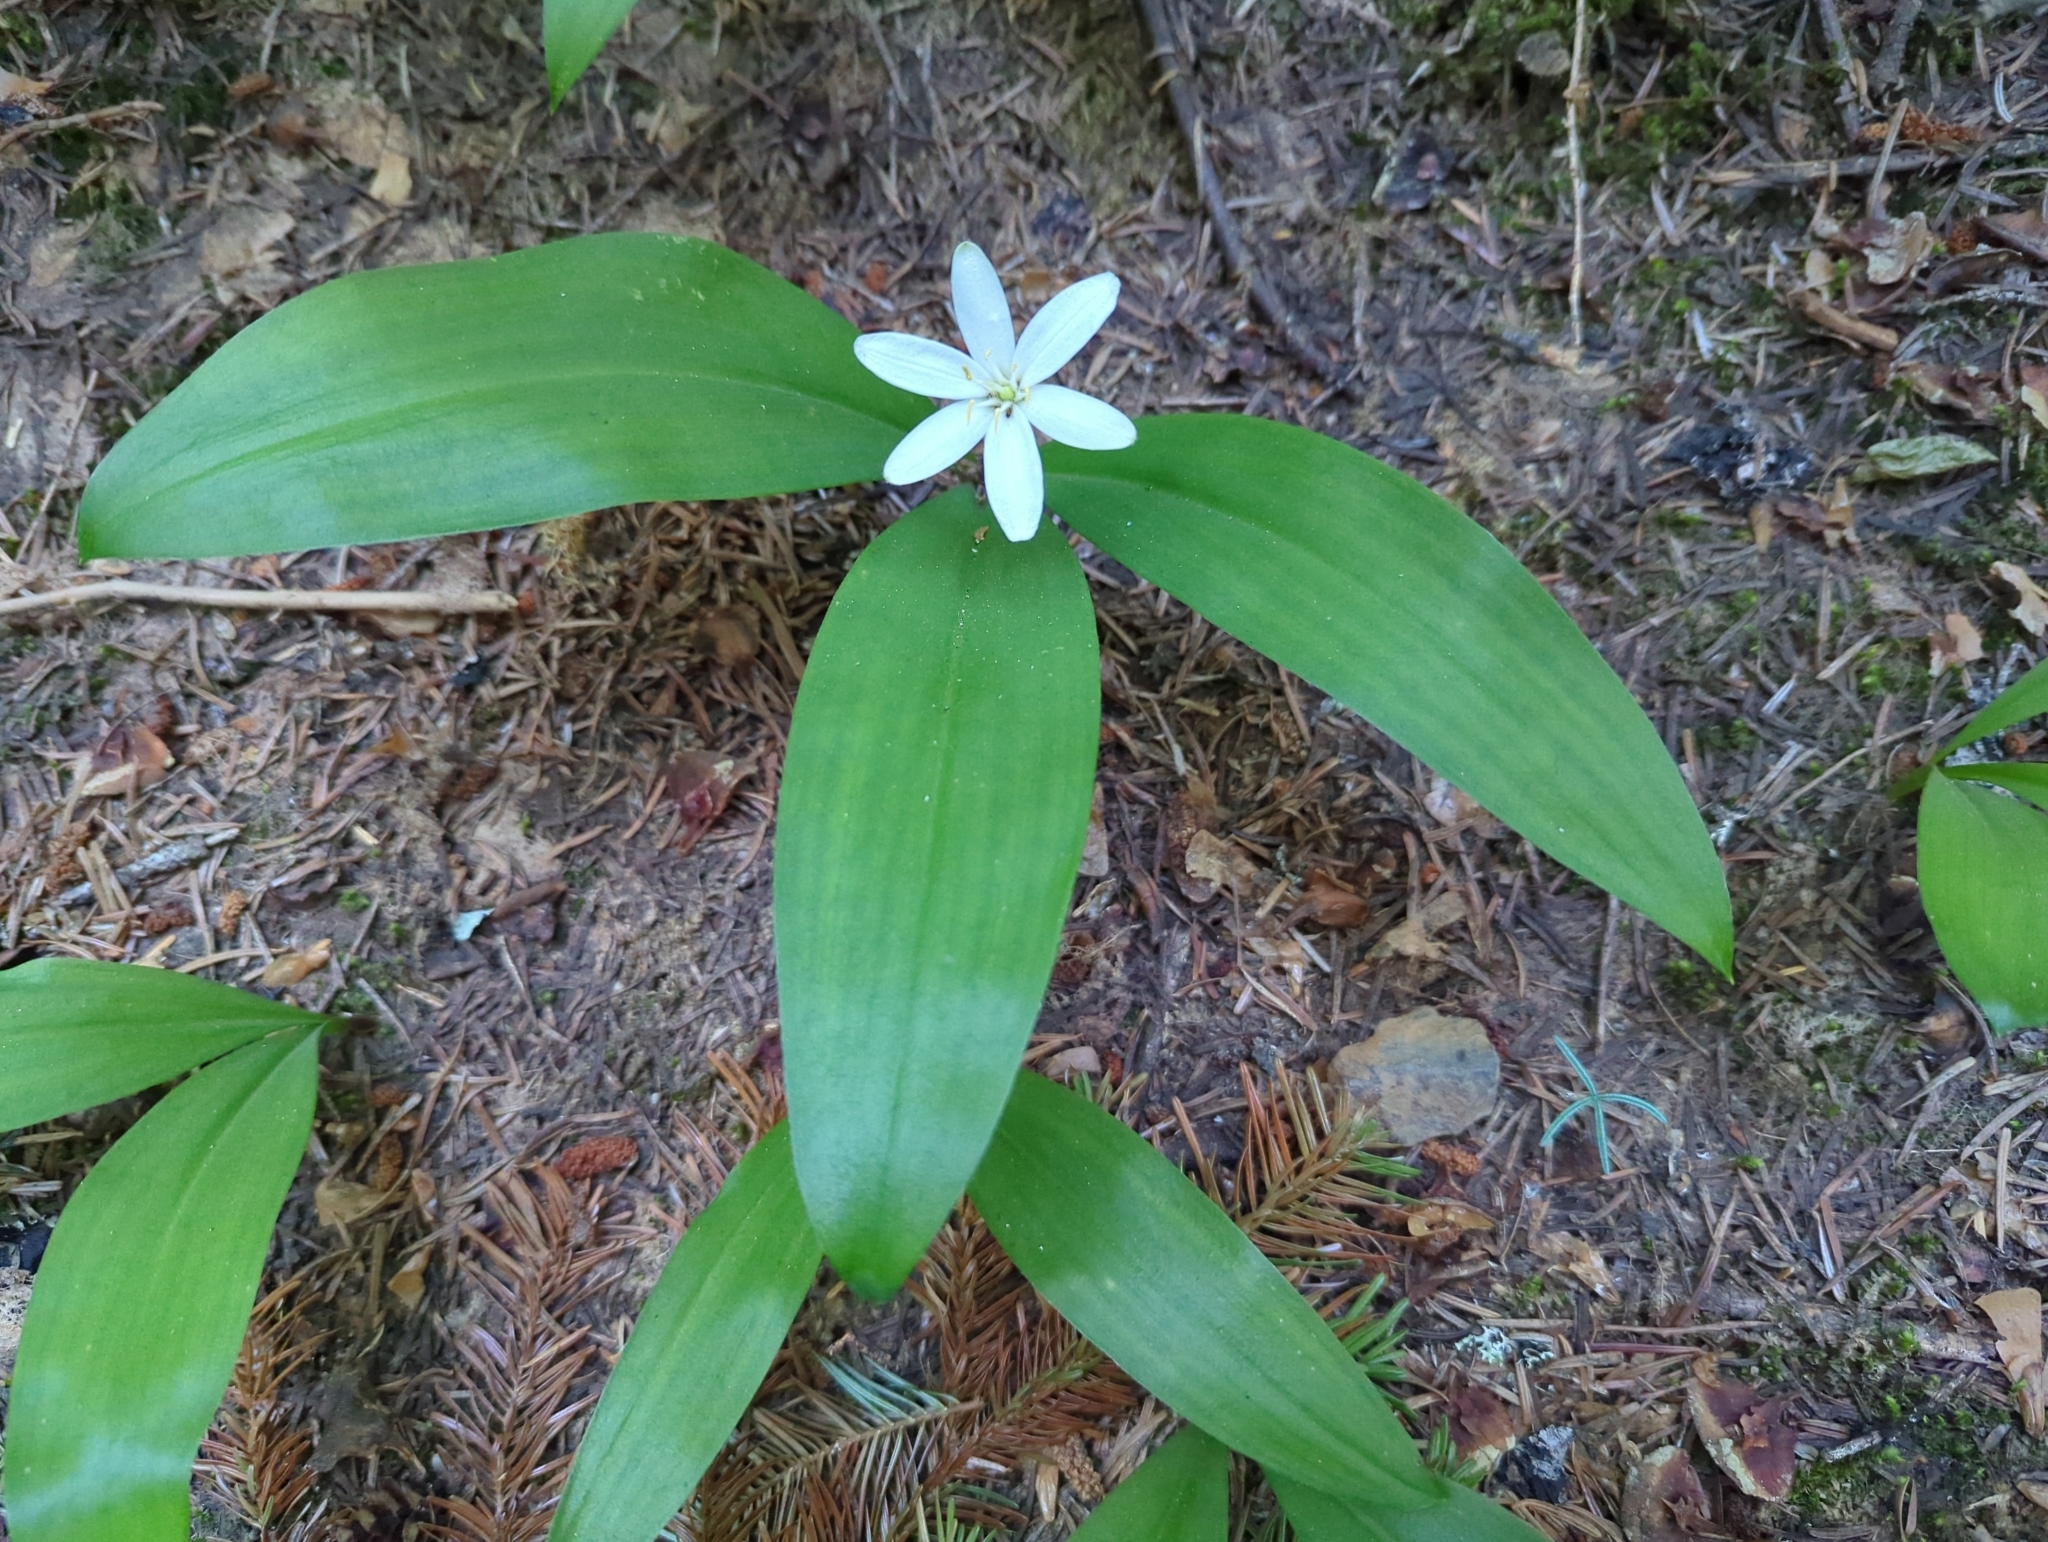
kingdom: Plantae
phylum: Tracheophyta
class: Liliopsida
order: Liliales
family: Liliaceae
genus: Clintonia
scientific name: Clintonia uniflora
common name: Queen's cup
